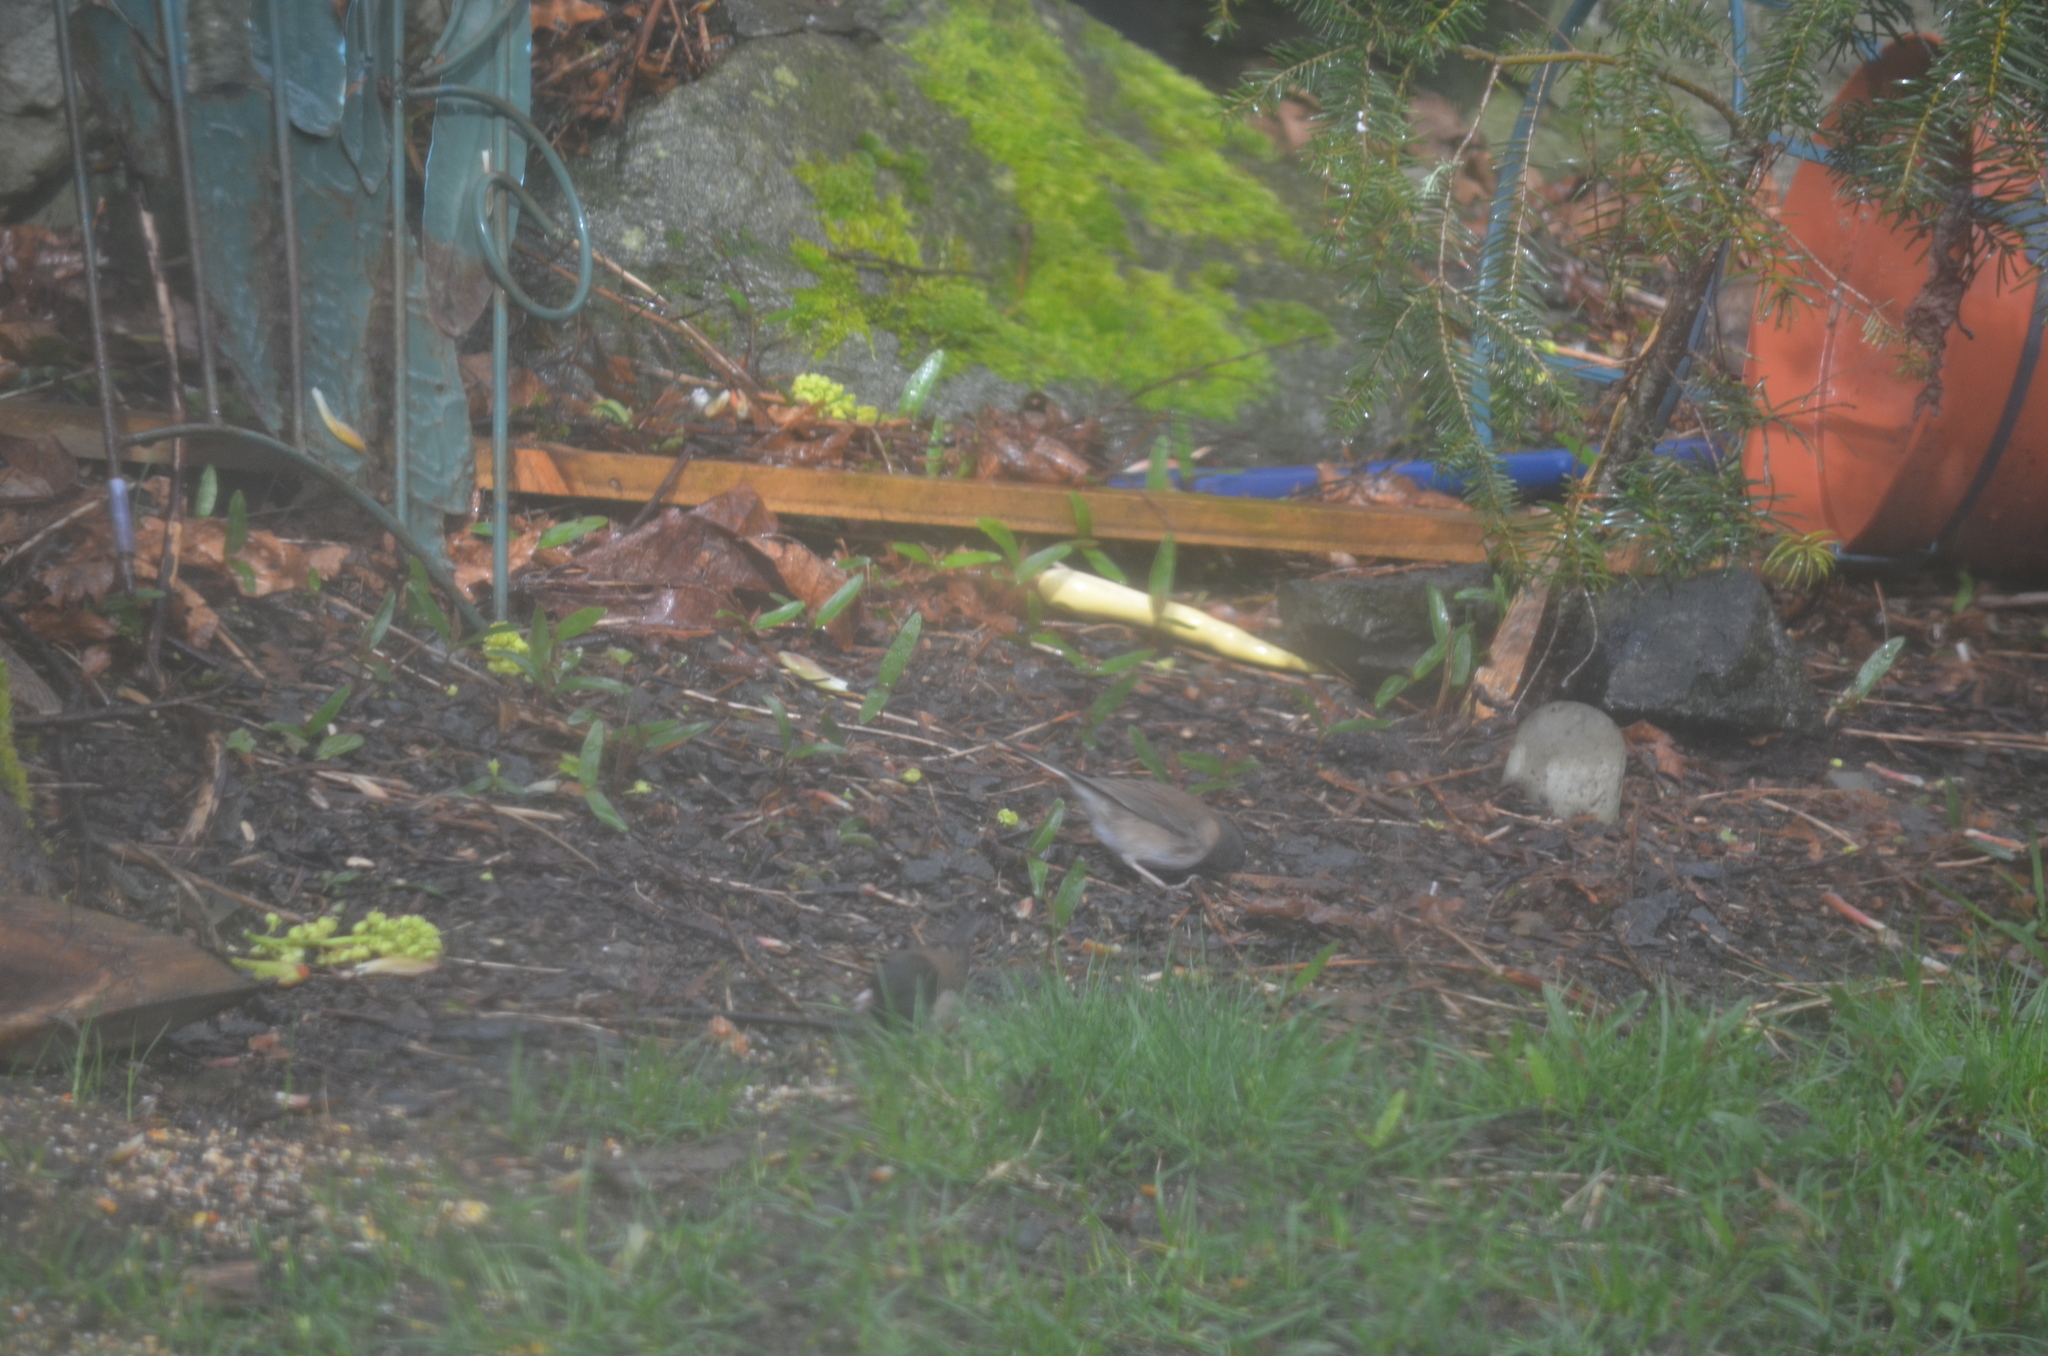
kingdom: Animalia
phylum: Chordata
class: Aves
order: Passeriformes
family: Passerellidae
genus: Junco
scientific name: Junco hyemalis
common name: Dark-eyed junco
